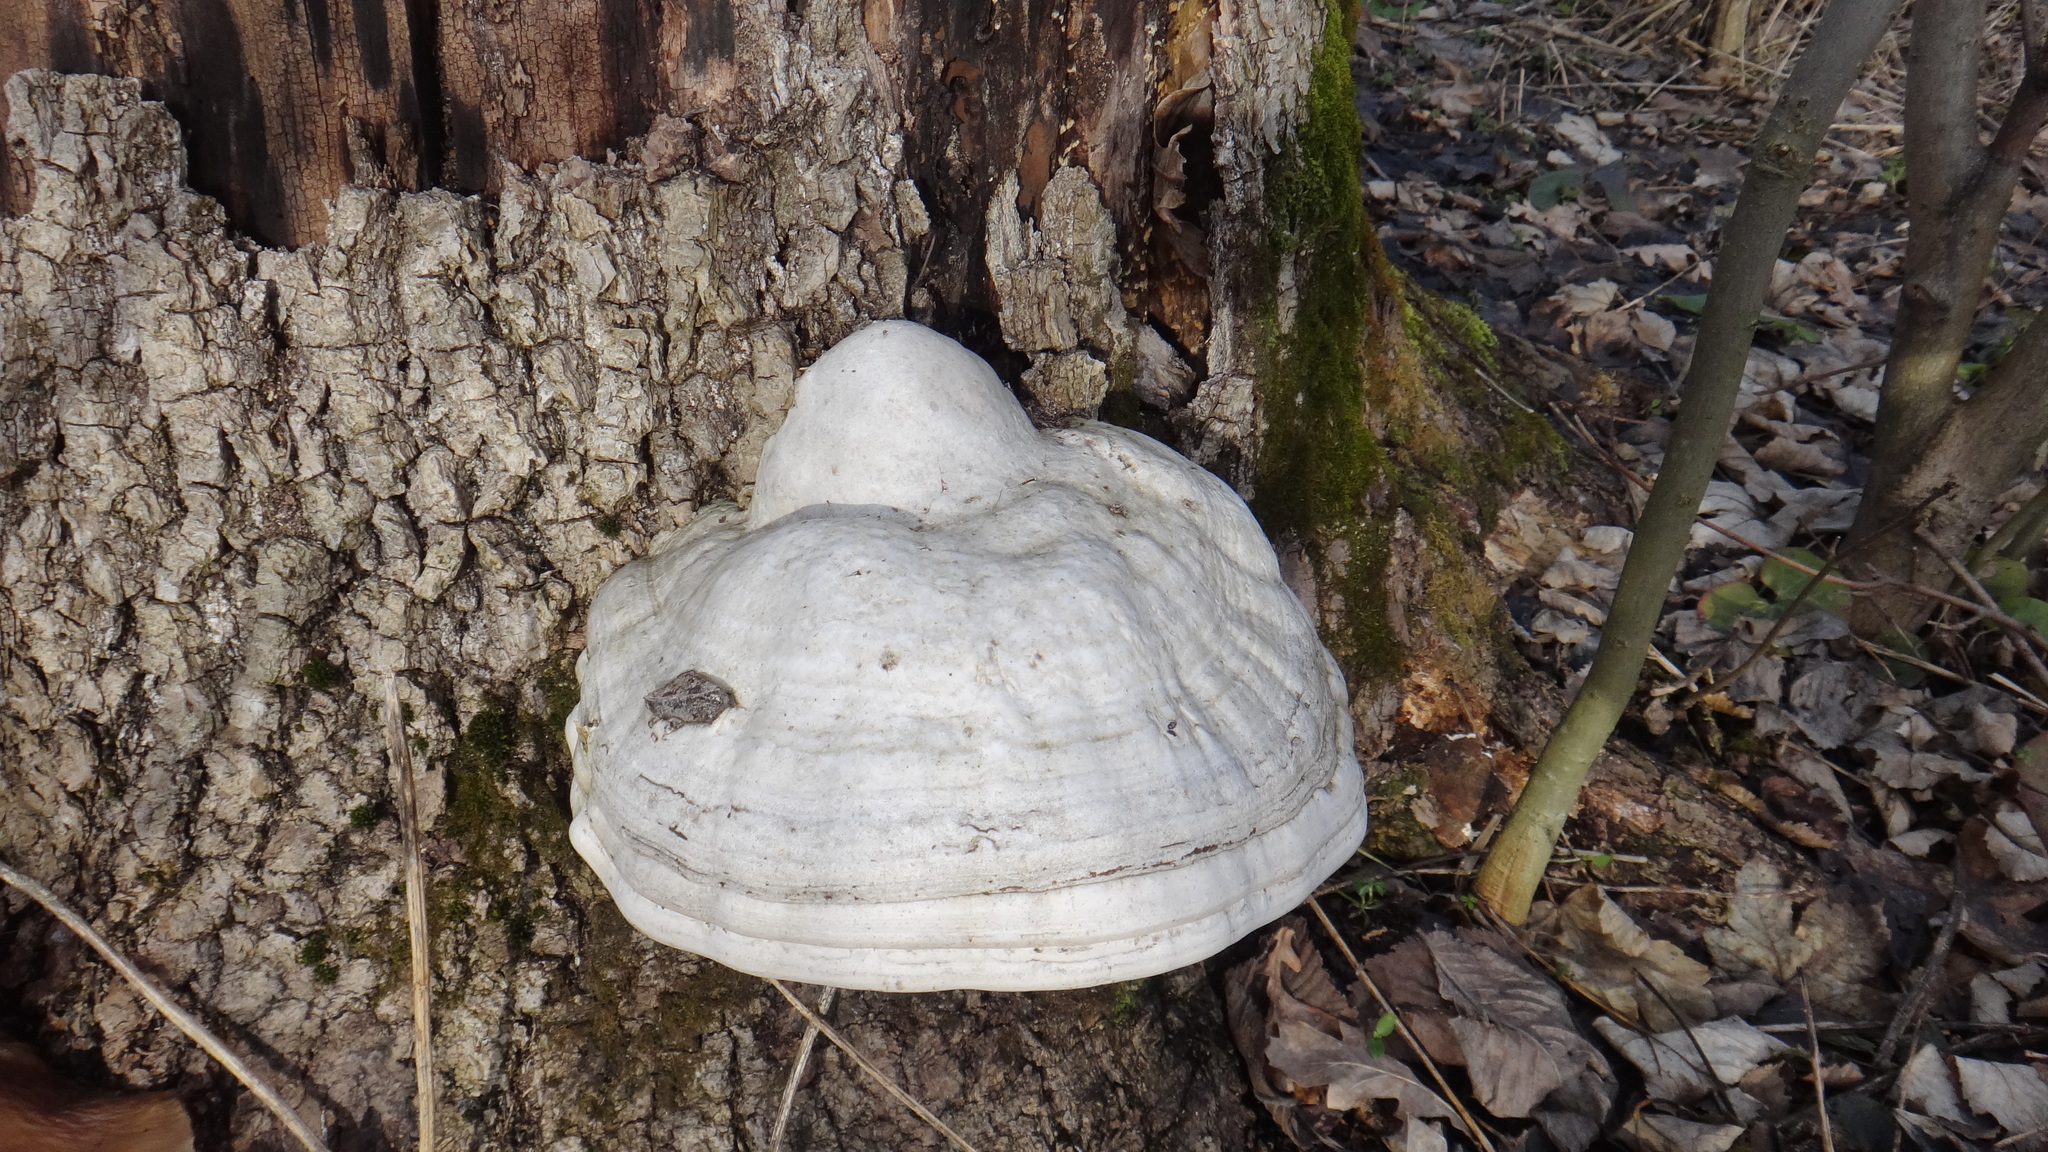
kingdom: Fungi
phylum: Basidiomycota
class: Agaricomycetes
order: Polyporales
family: Polyporaceae
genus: Fomes
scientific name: Fomes fomentarius
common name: Hoof fungus
